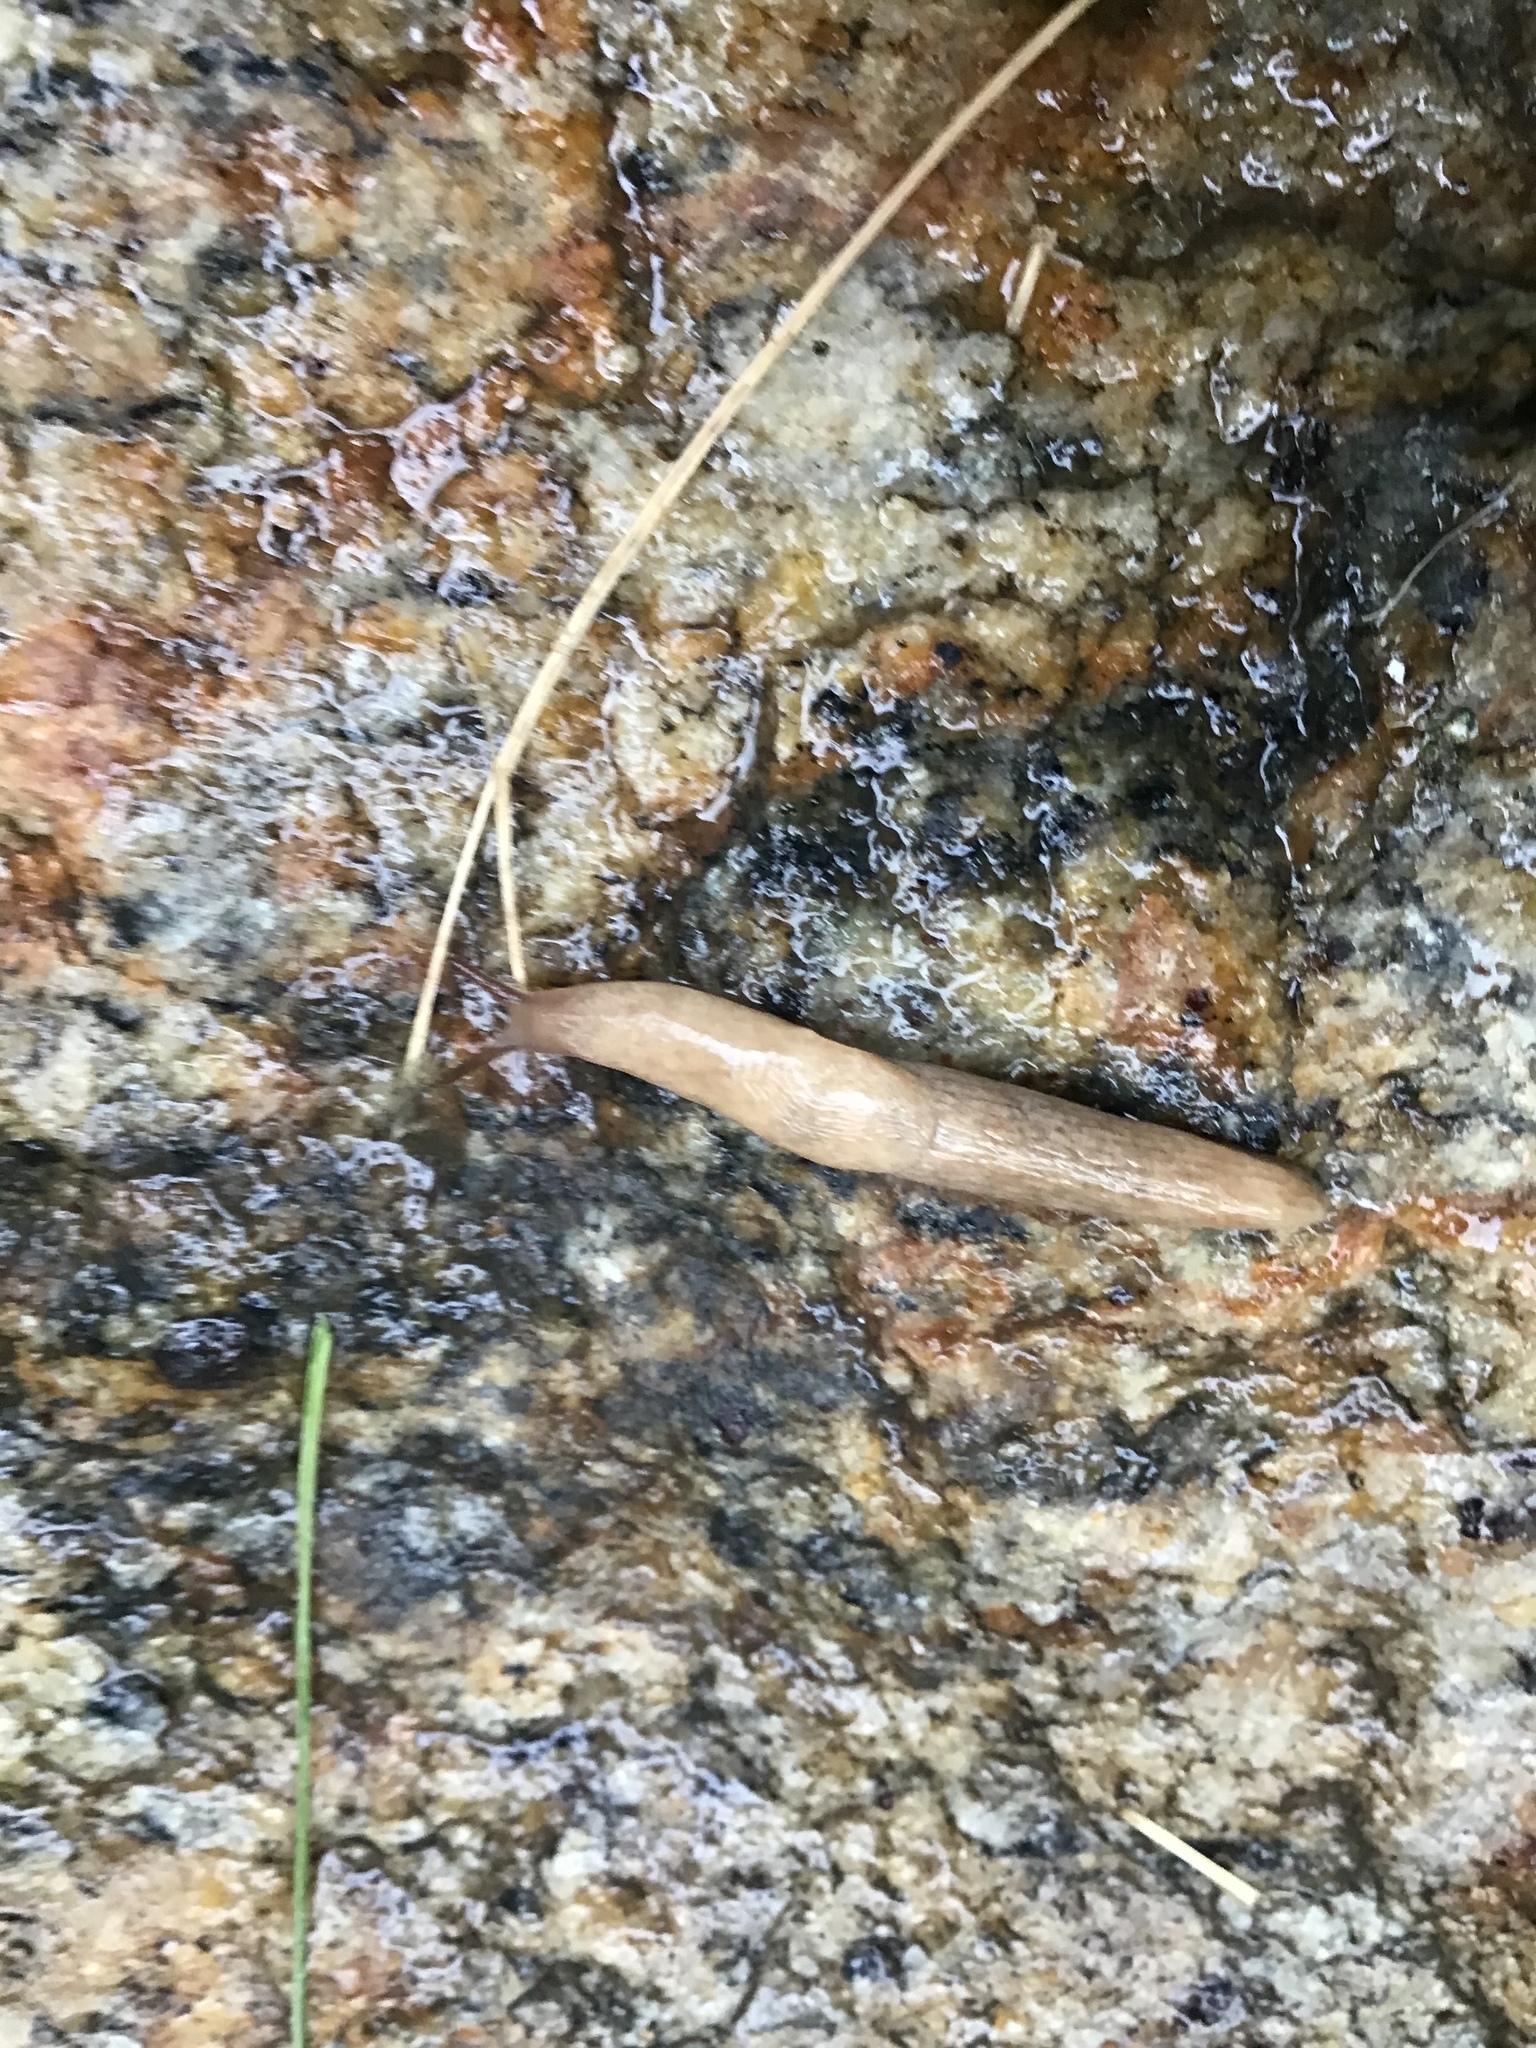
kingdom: Animalia
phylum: Mollusca
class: Gastropoda
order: Stylommatophora
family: Agriolimacidae
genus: Deroceras
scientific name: Deroceras reticulatum
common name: Gray field slug
